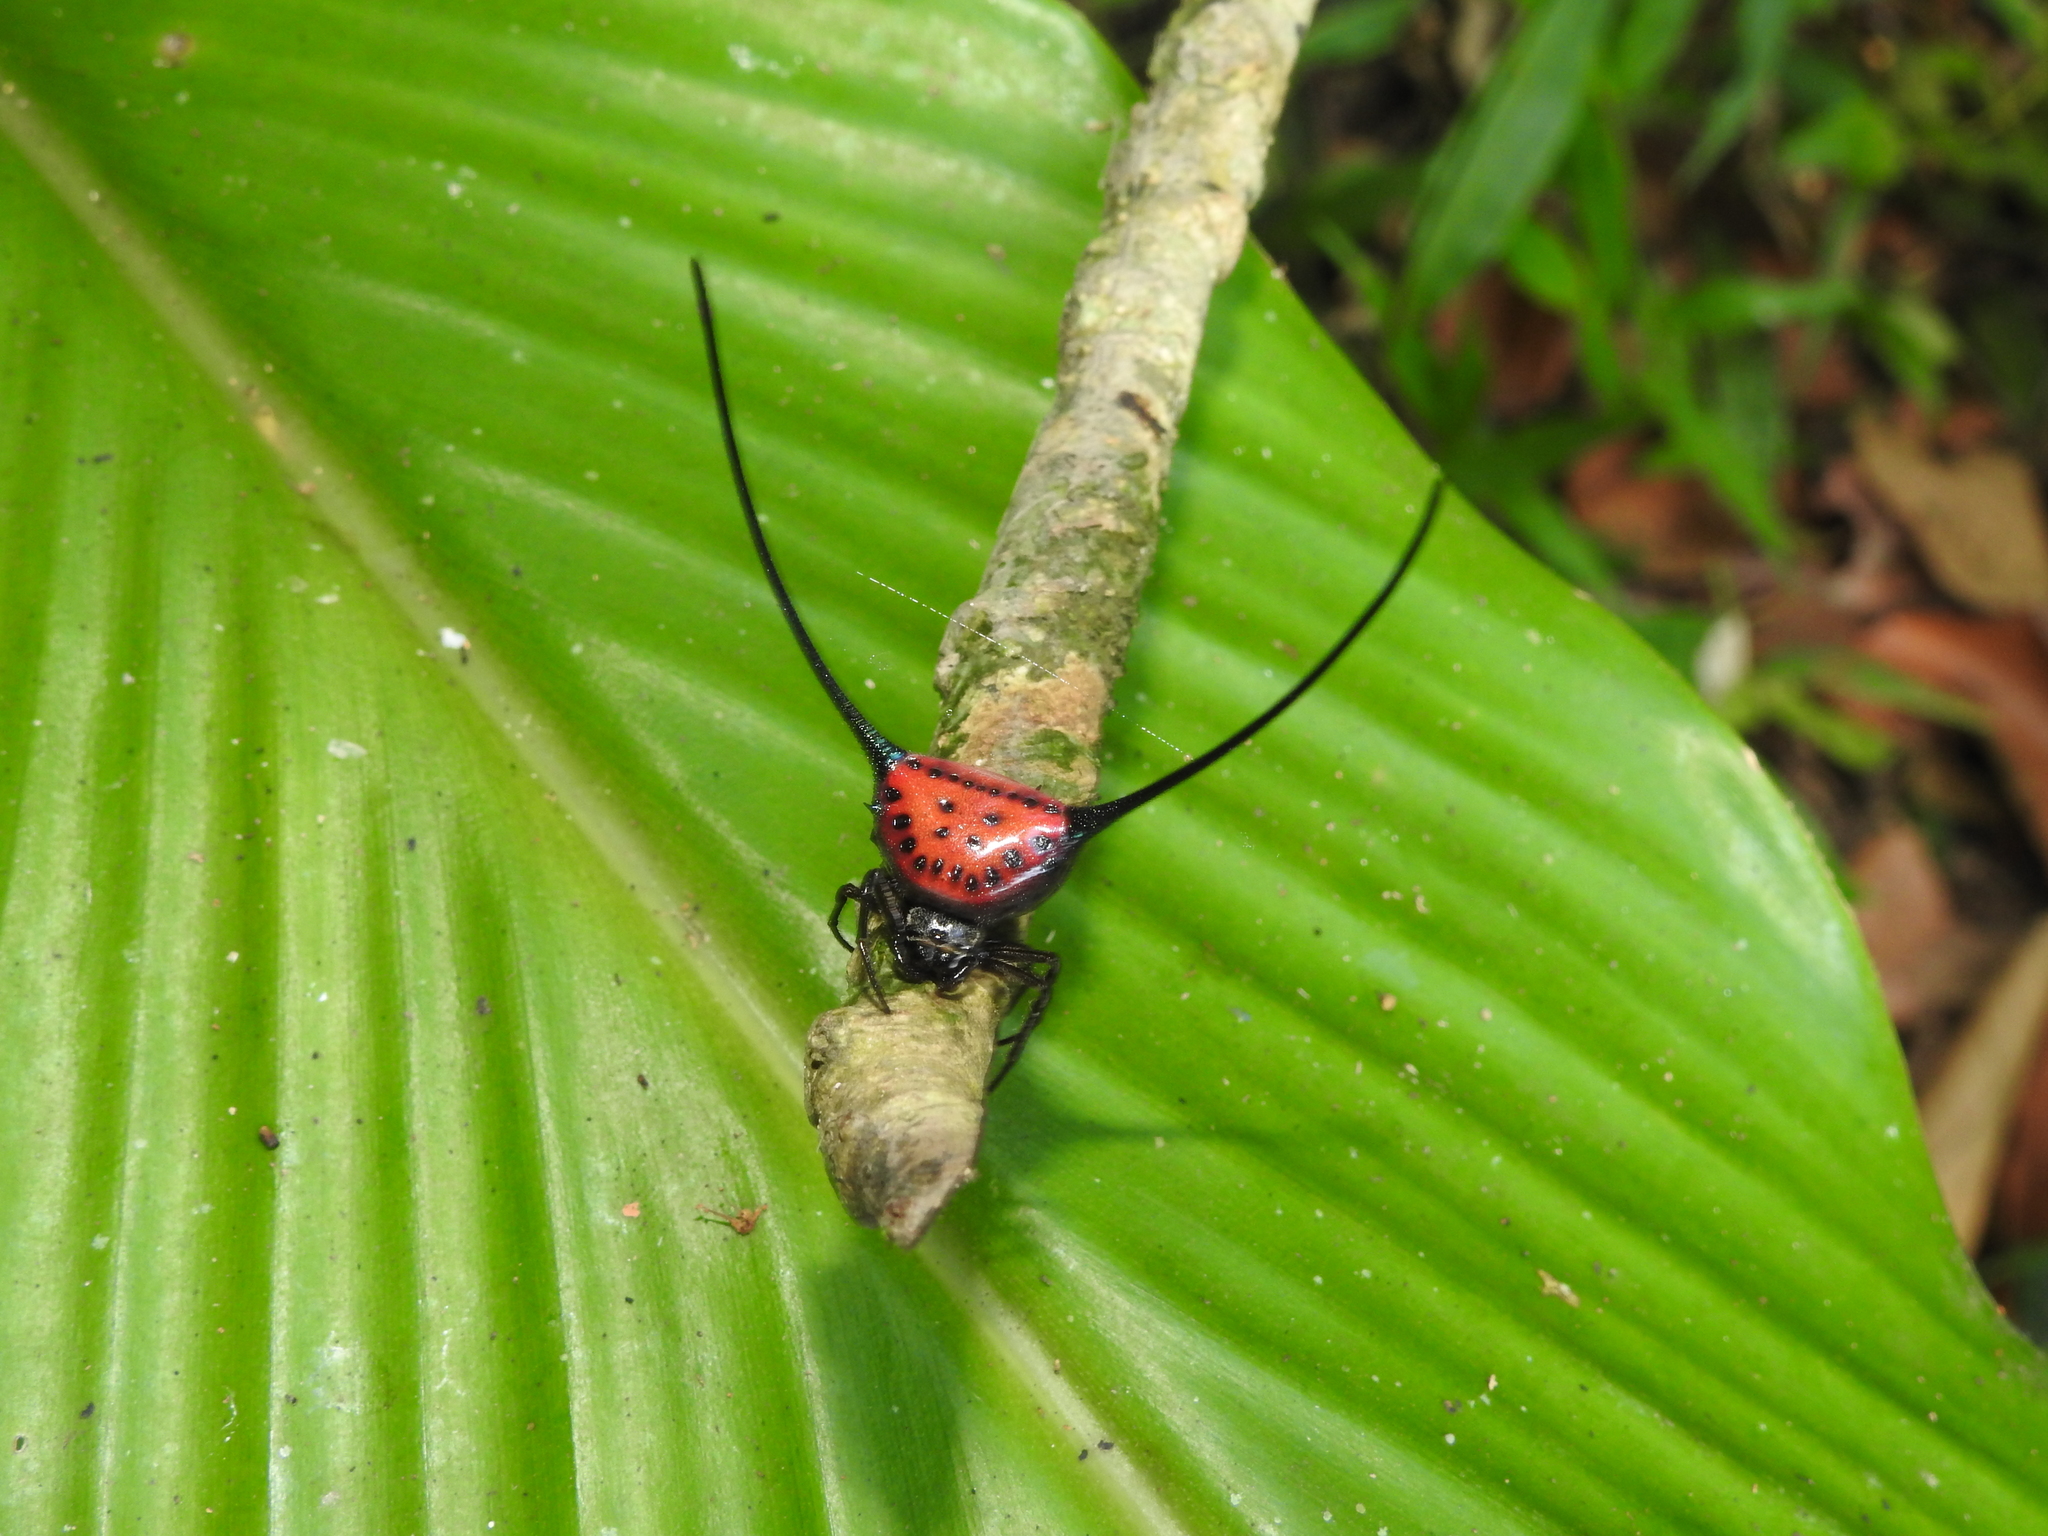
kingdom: Animalia
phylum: Arthropoda
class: Arachnida
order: Araneae
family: Araneidae
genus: Macracantha
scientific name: Macracantha arcuata
